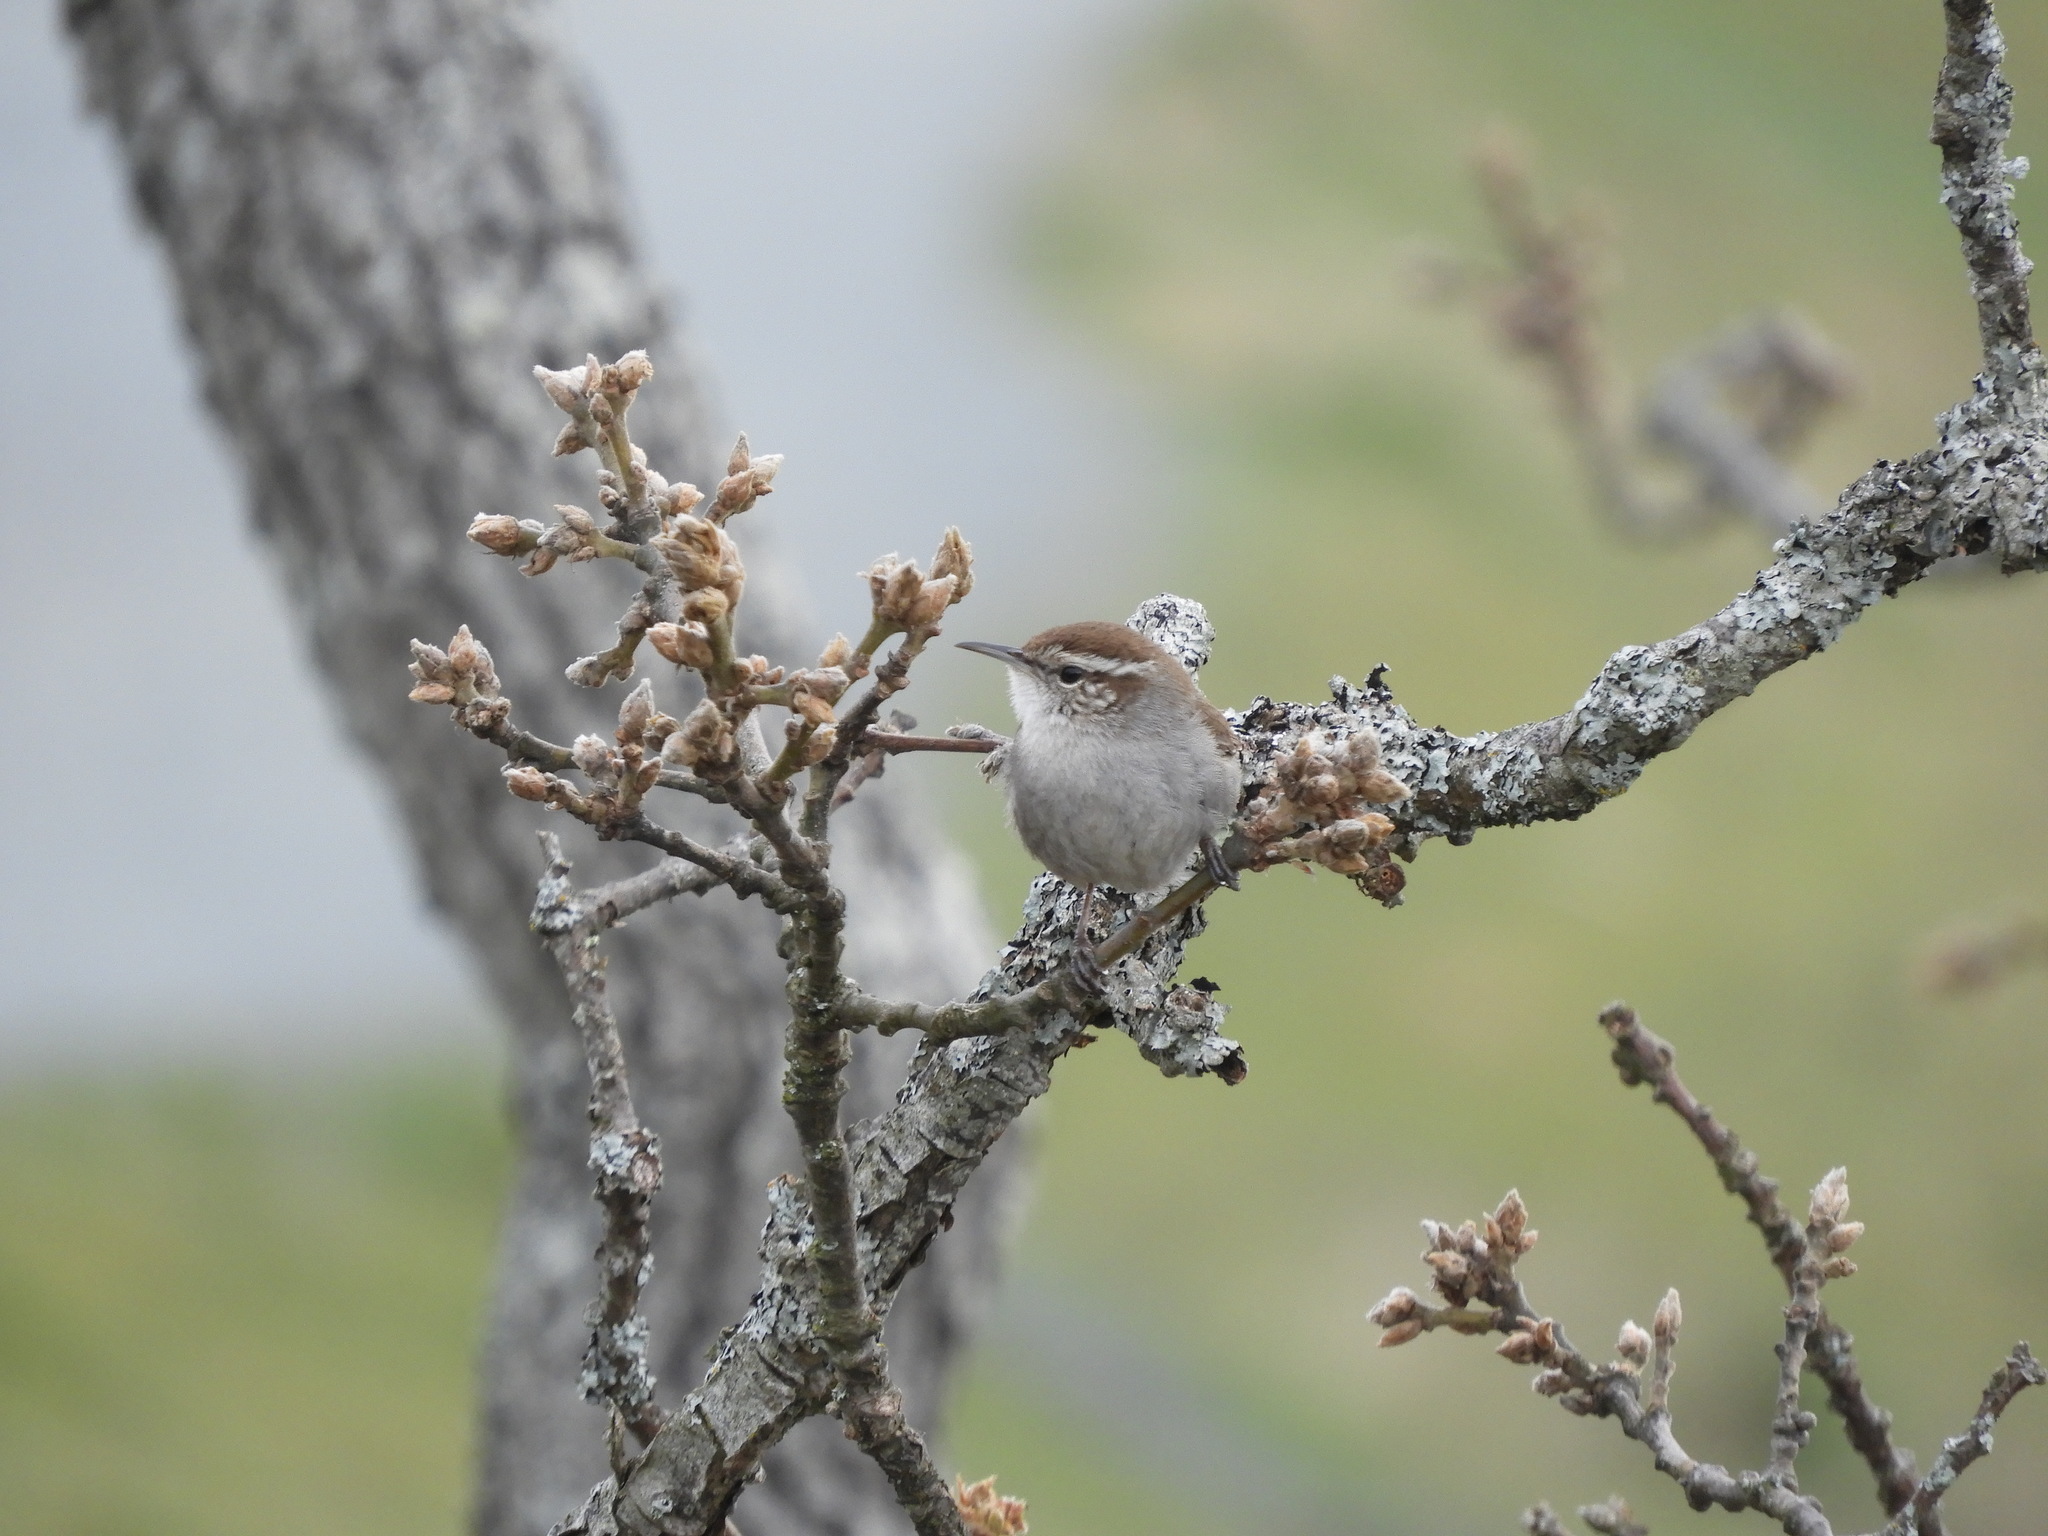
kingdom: Animalia
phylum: Chordata
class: Aves
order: Passeriformes
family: Troglodytidae
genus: Thryomanes
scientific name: Thryomanes bewickii
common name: Bewick's wren
